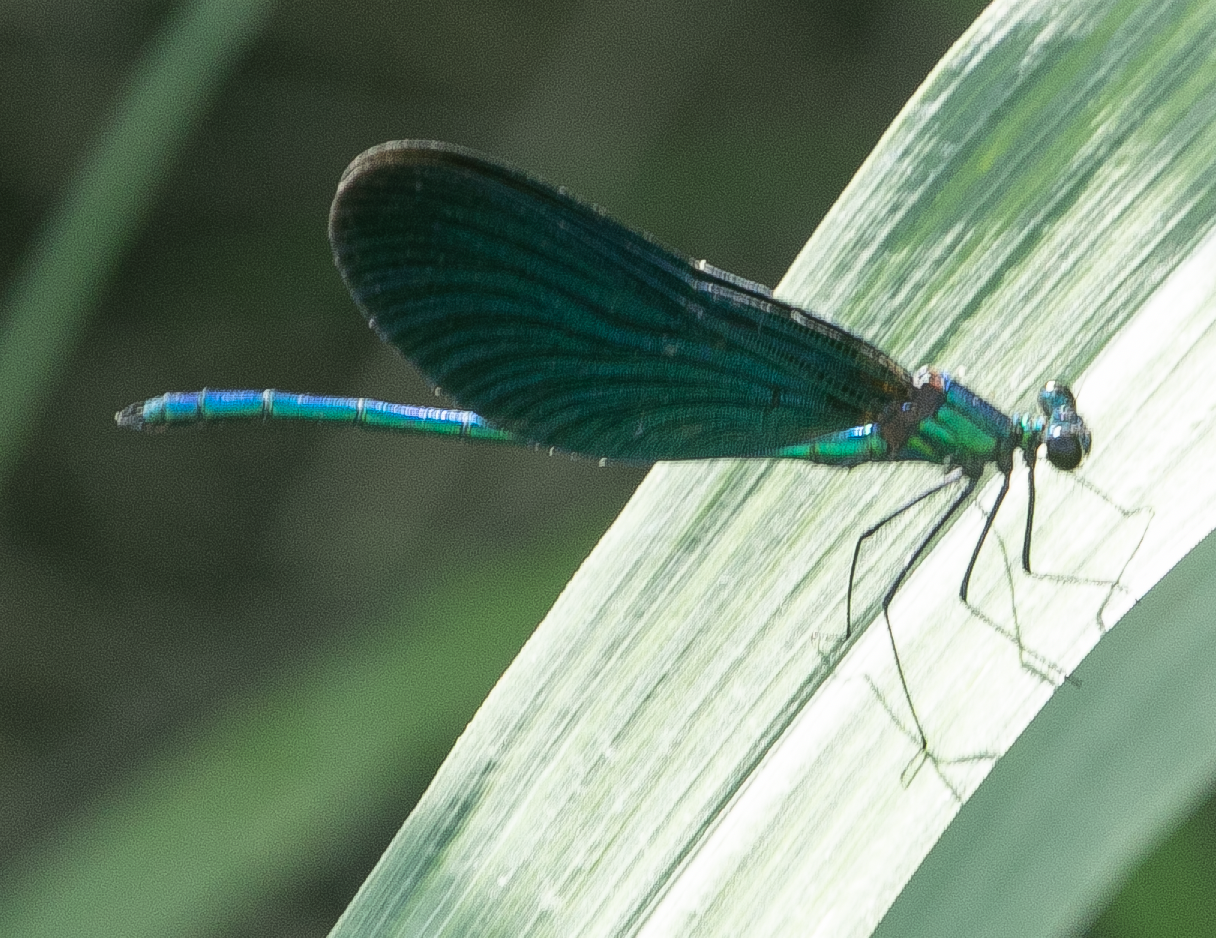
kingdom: Animalia
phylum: Arthropoda
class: Insecta
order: Odonata
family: Calopterygidae
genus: Calopteryx
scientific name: Calopteryx virgo
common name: Beautiful demoiselle
